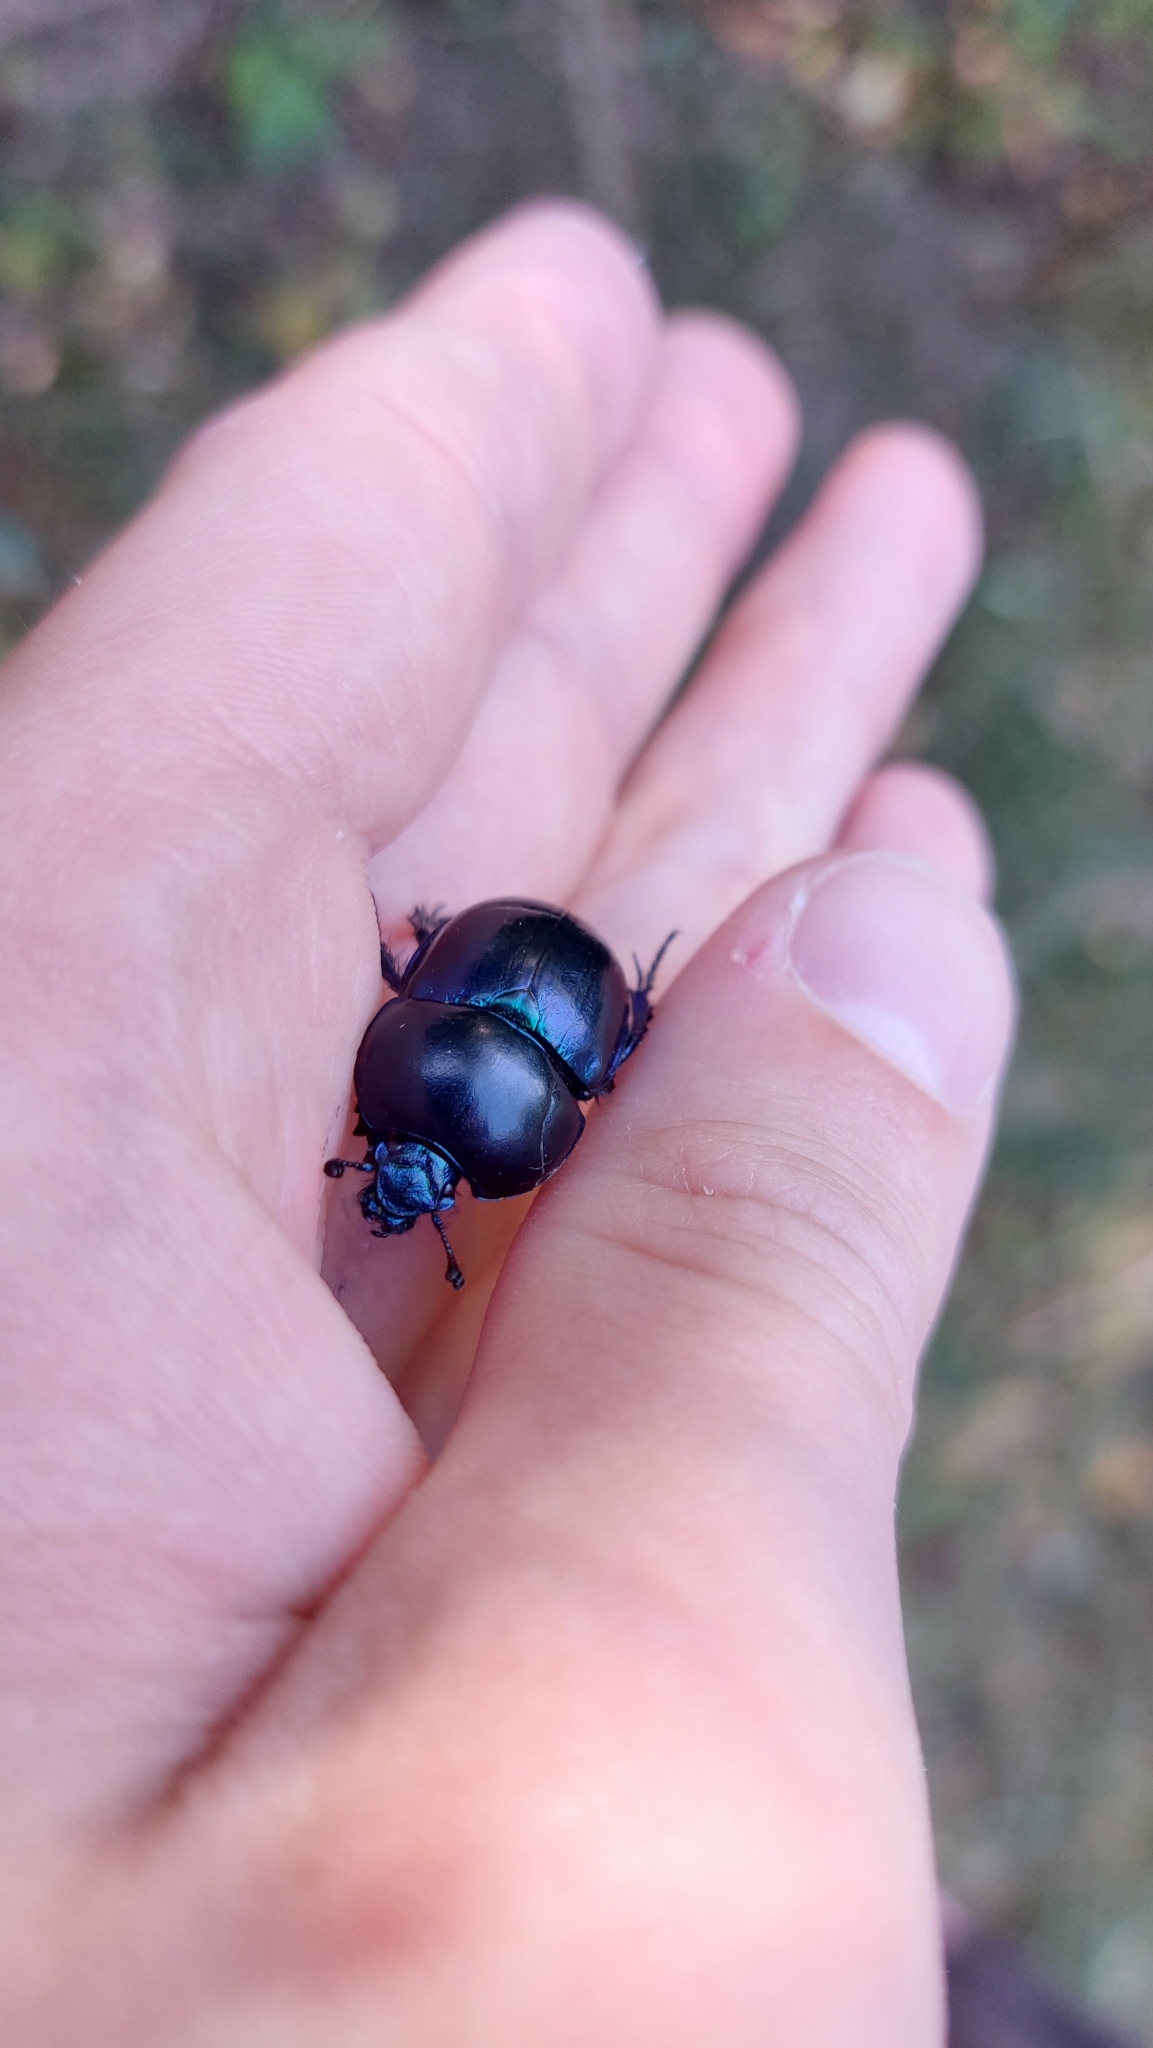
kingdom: Animalia
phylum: Arthropoda
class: Insecta
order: Coleoptera
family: Geotrupidae
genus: Trypocopris
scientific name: Trypocopris vernalis
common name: Spring dumbledor
